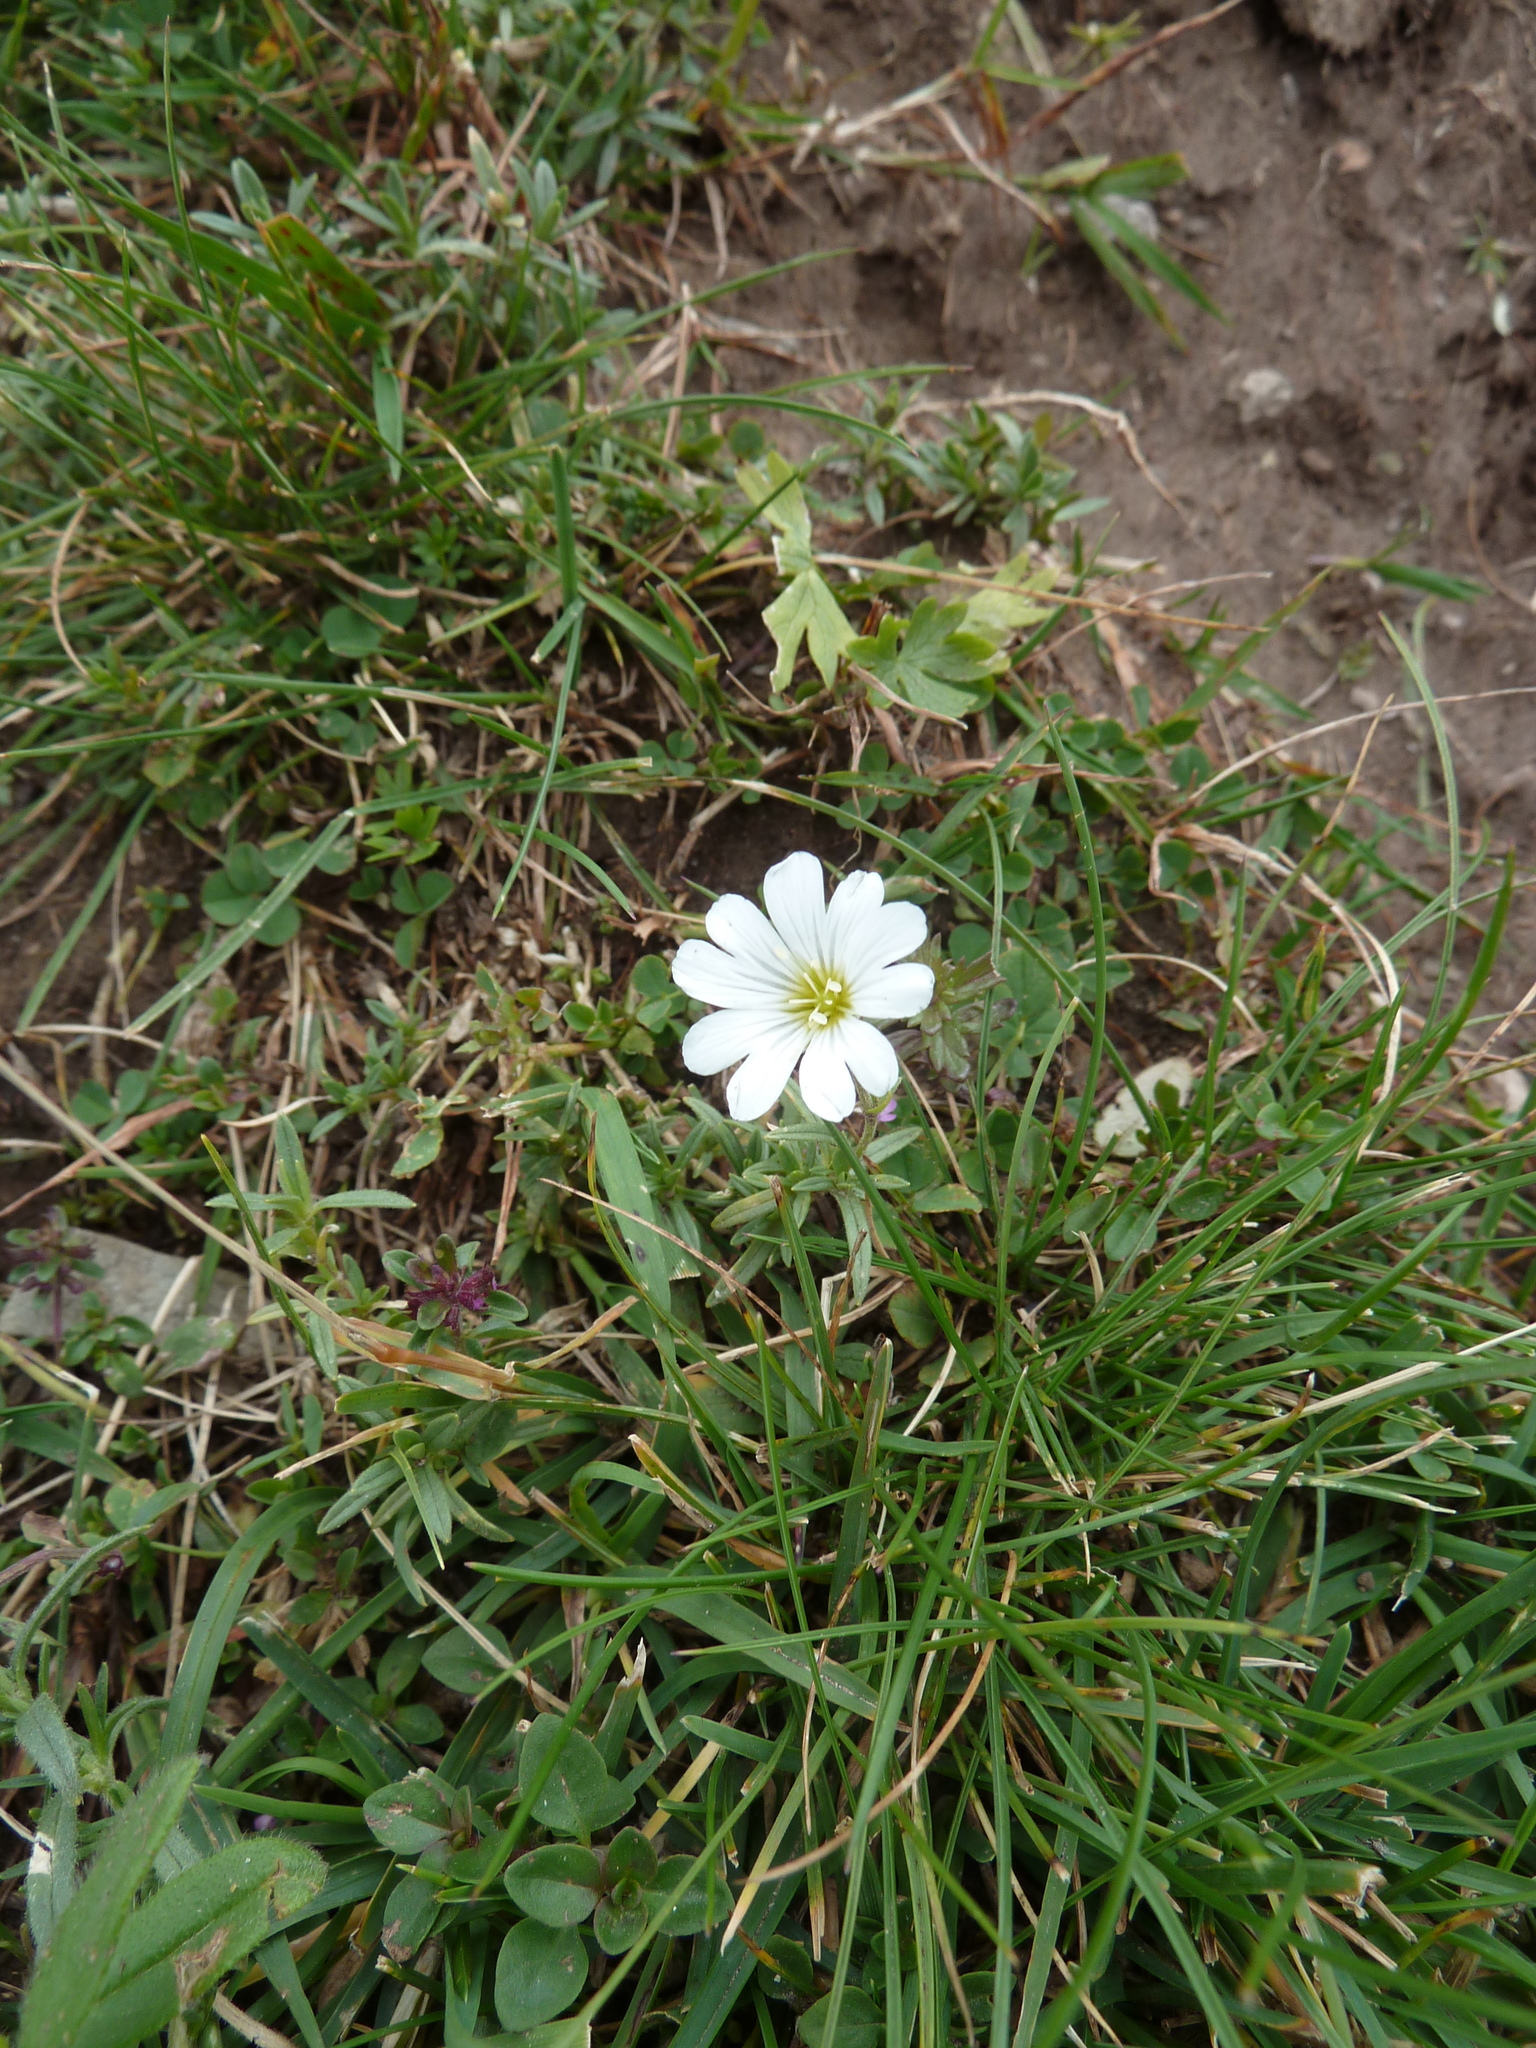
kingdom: Plantae
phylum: Tracheophyta
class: Magnoliopsida
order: Caryophyllales
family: Caryophyllaceae
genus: Cerastium
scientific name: Cerastium arvense
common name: Field mouse-ear
